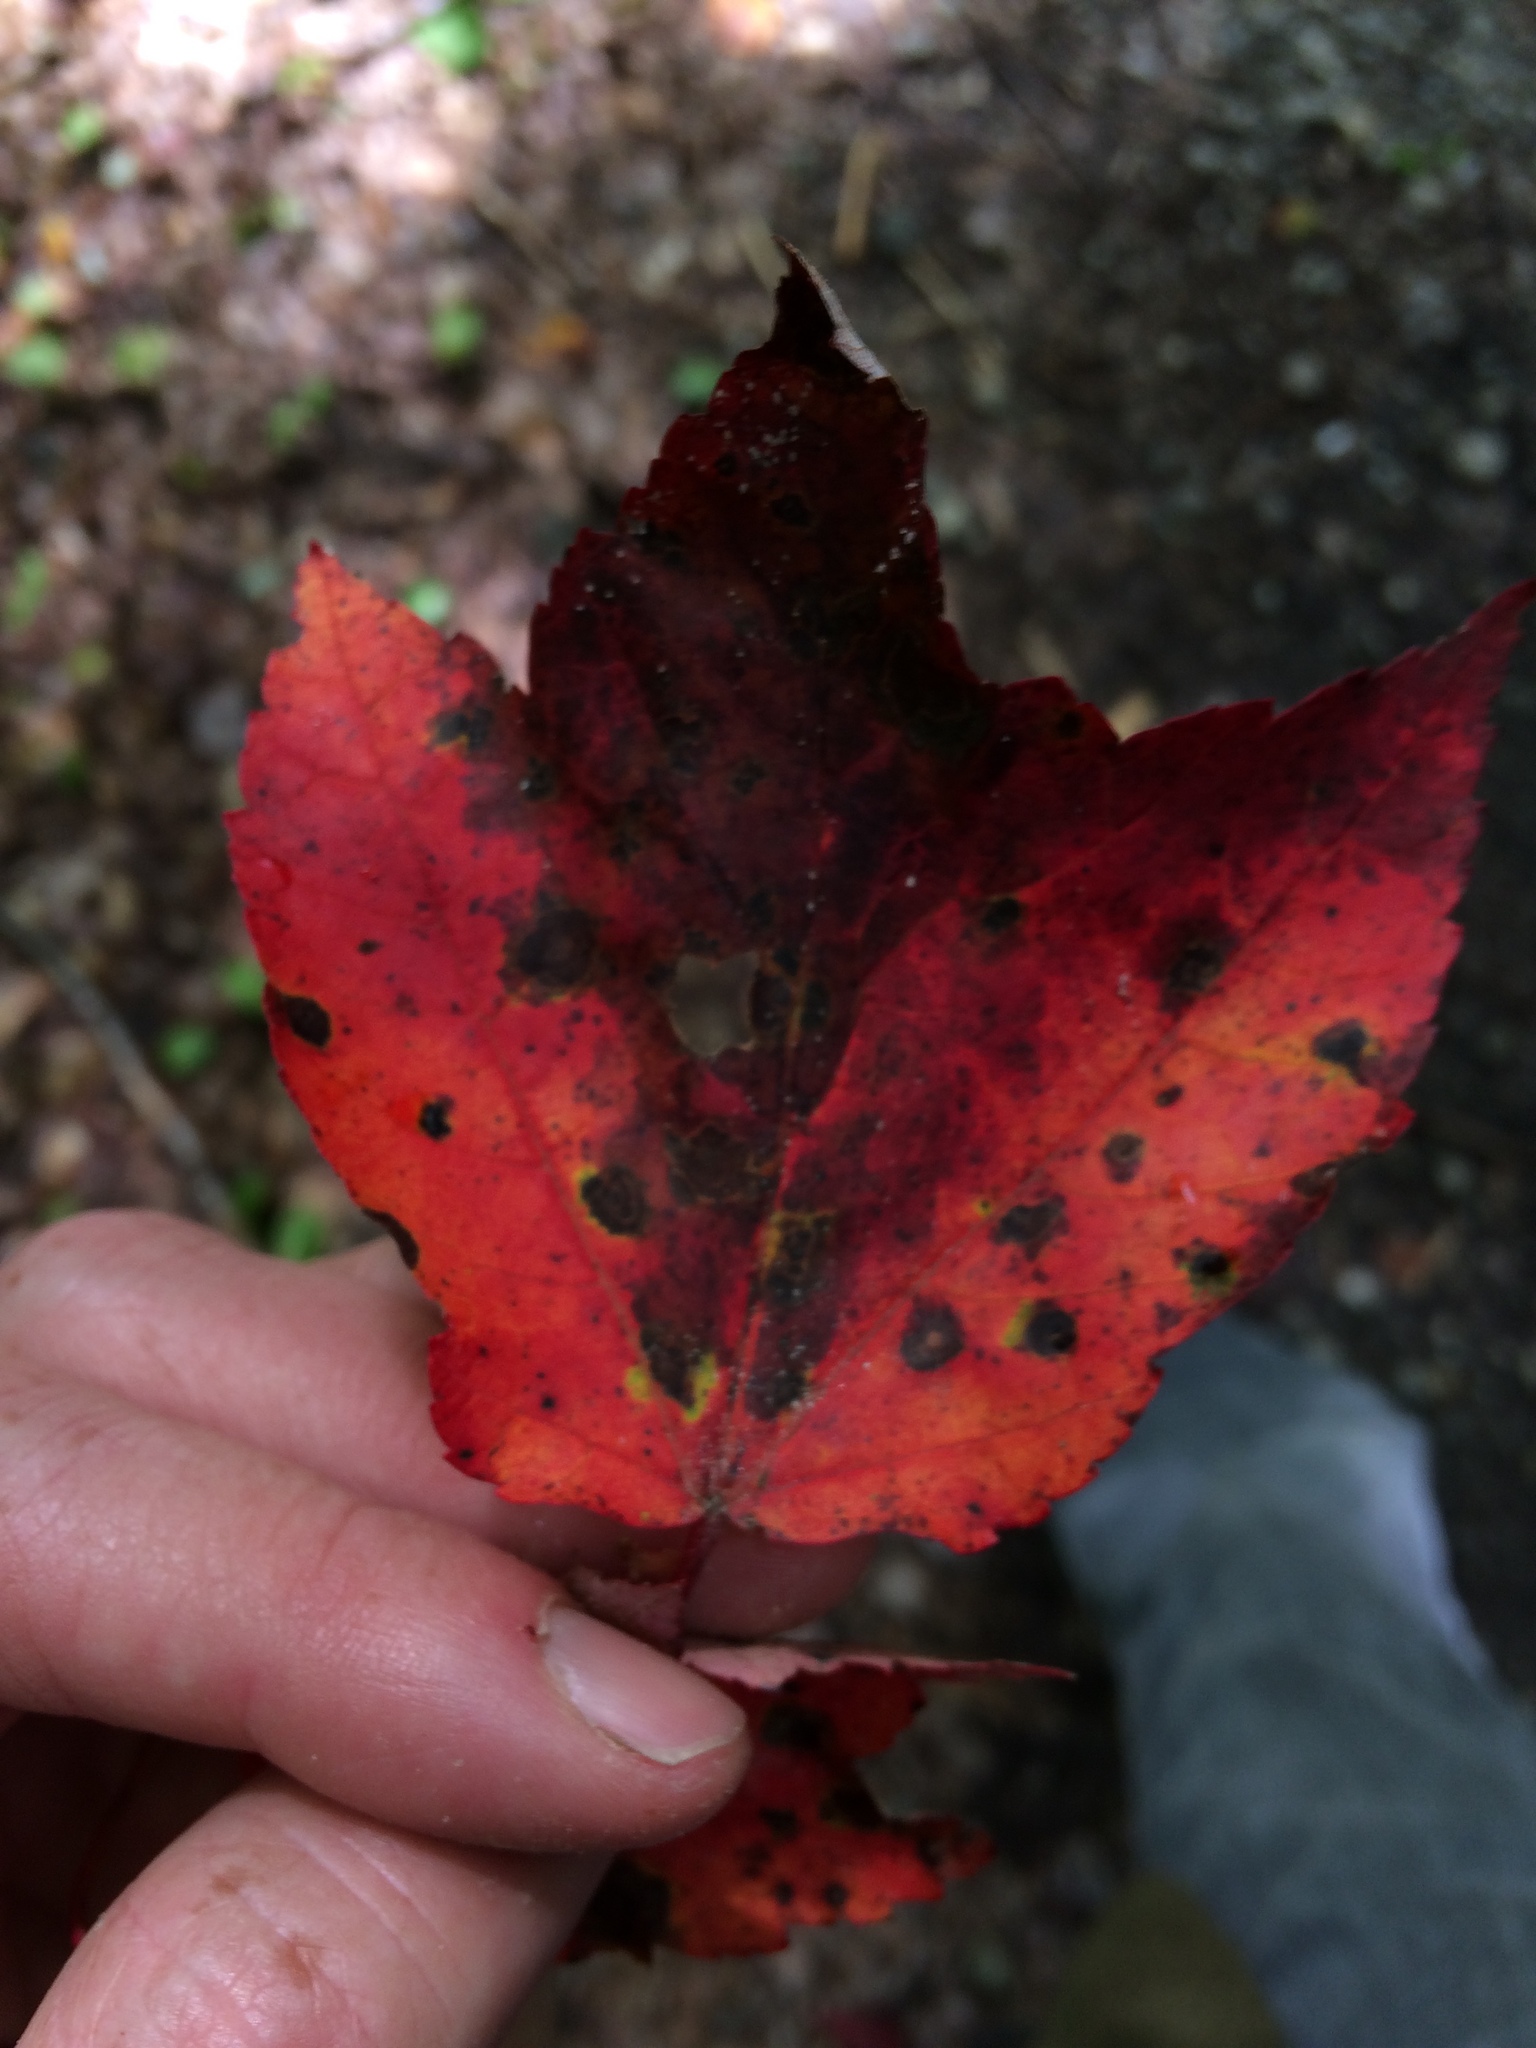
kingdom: Plantae
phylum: Tracheophyta
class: Magnoliopsida
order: Sapindales
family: Sapindaceae
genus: Acer
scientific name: Acer rubrum
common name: Red maple
